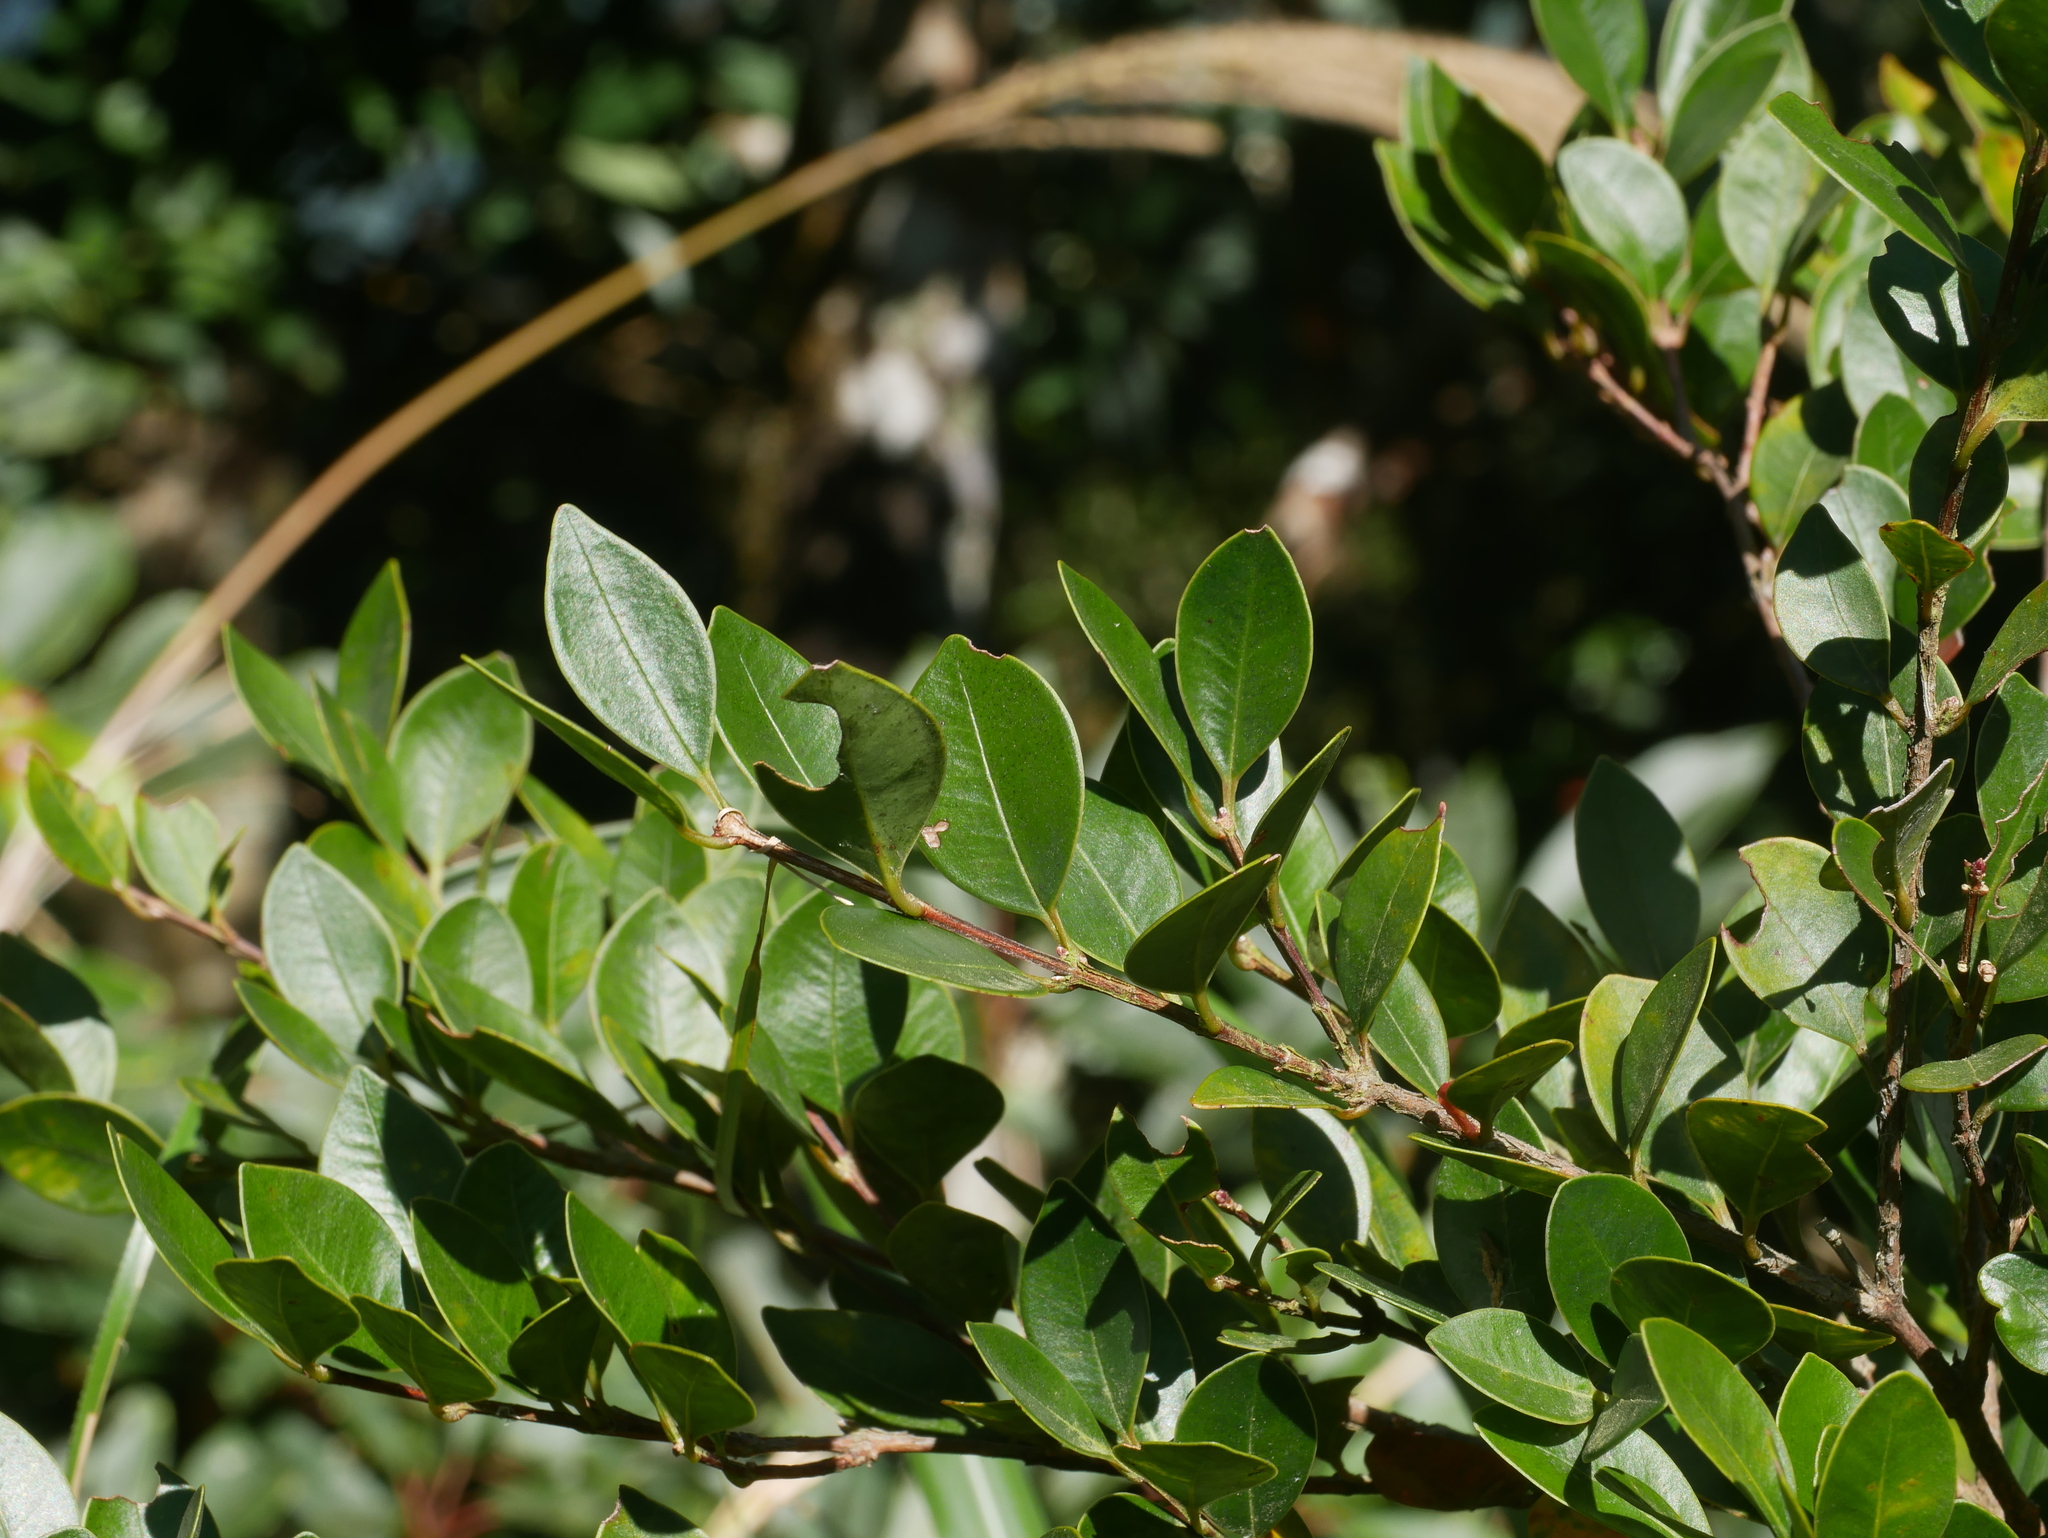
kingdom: Plantae
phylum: Tracheophyta
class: Magnoliopsida
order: Myrtales
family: Myrtaceae
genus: Syzygium
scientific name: Syzygium elliptifolium
